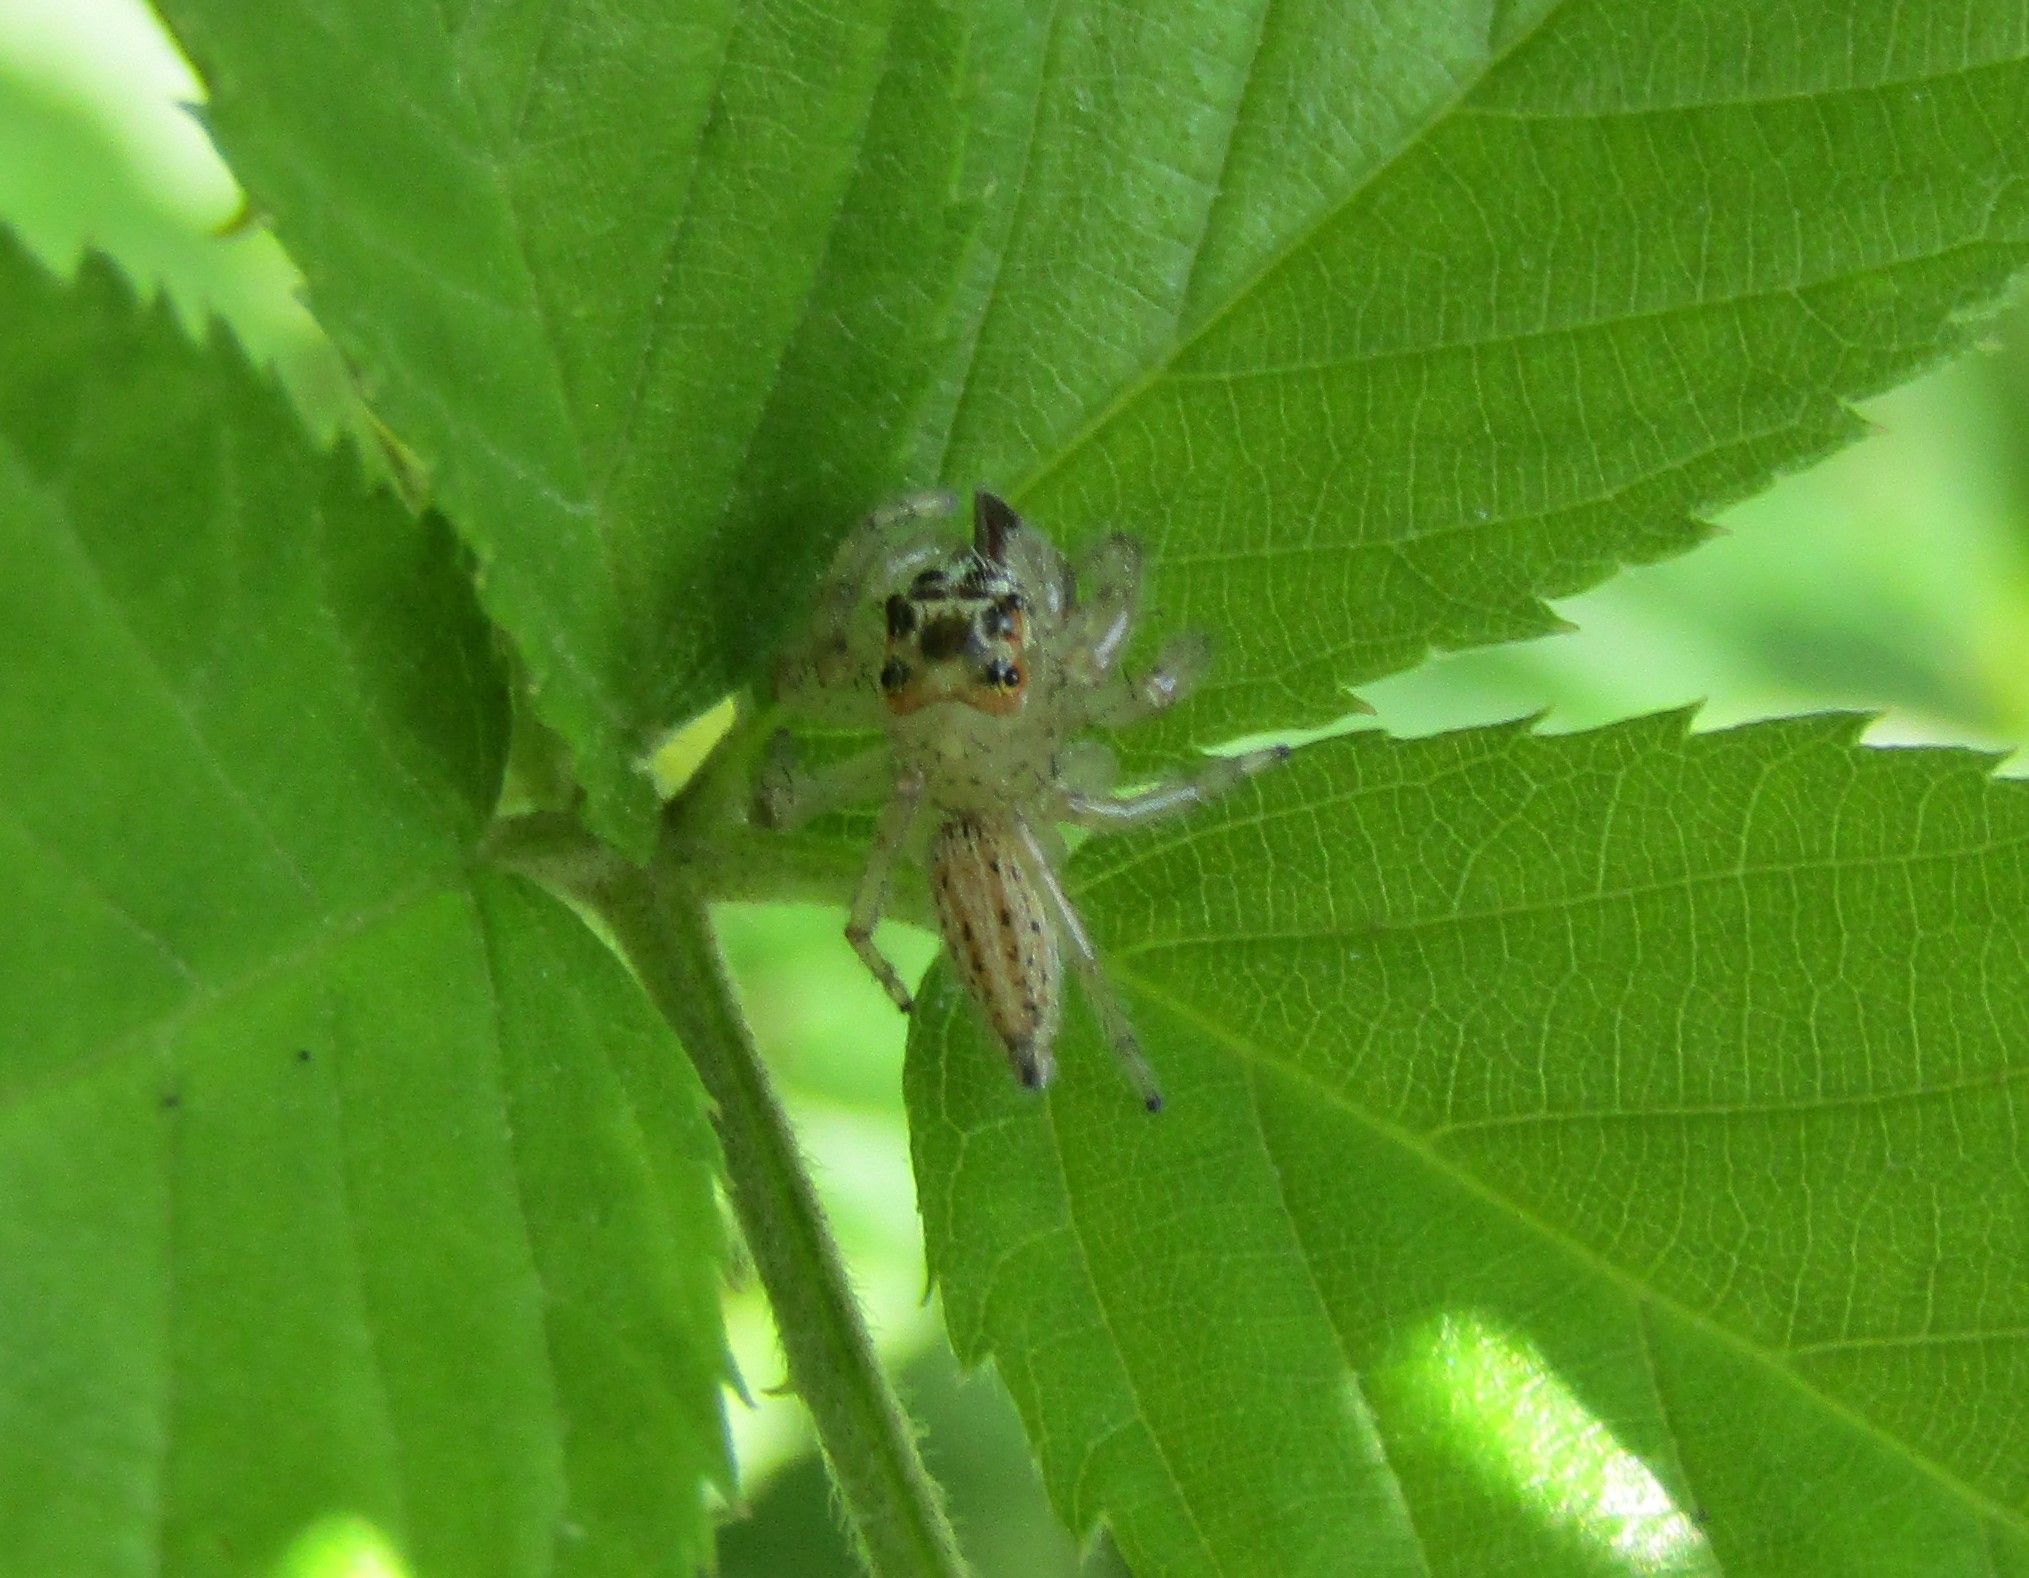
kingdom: Animalia
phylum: Arthropoda
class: Arachnida
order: Araneae
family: Salticidae
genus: Colonus
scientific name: Colonus sylvanus
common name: Jumping spiders
